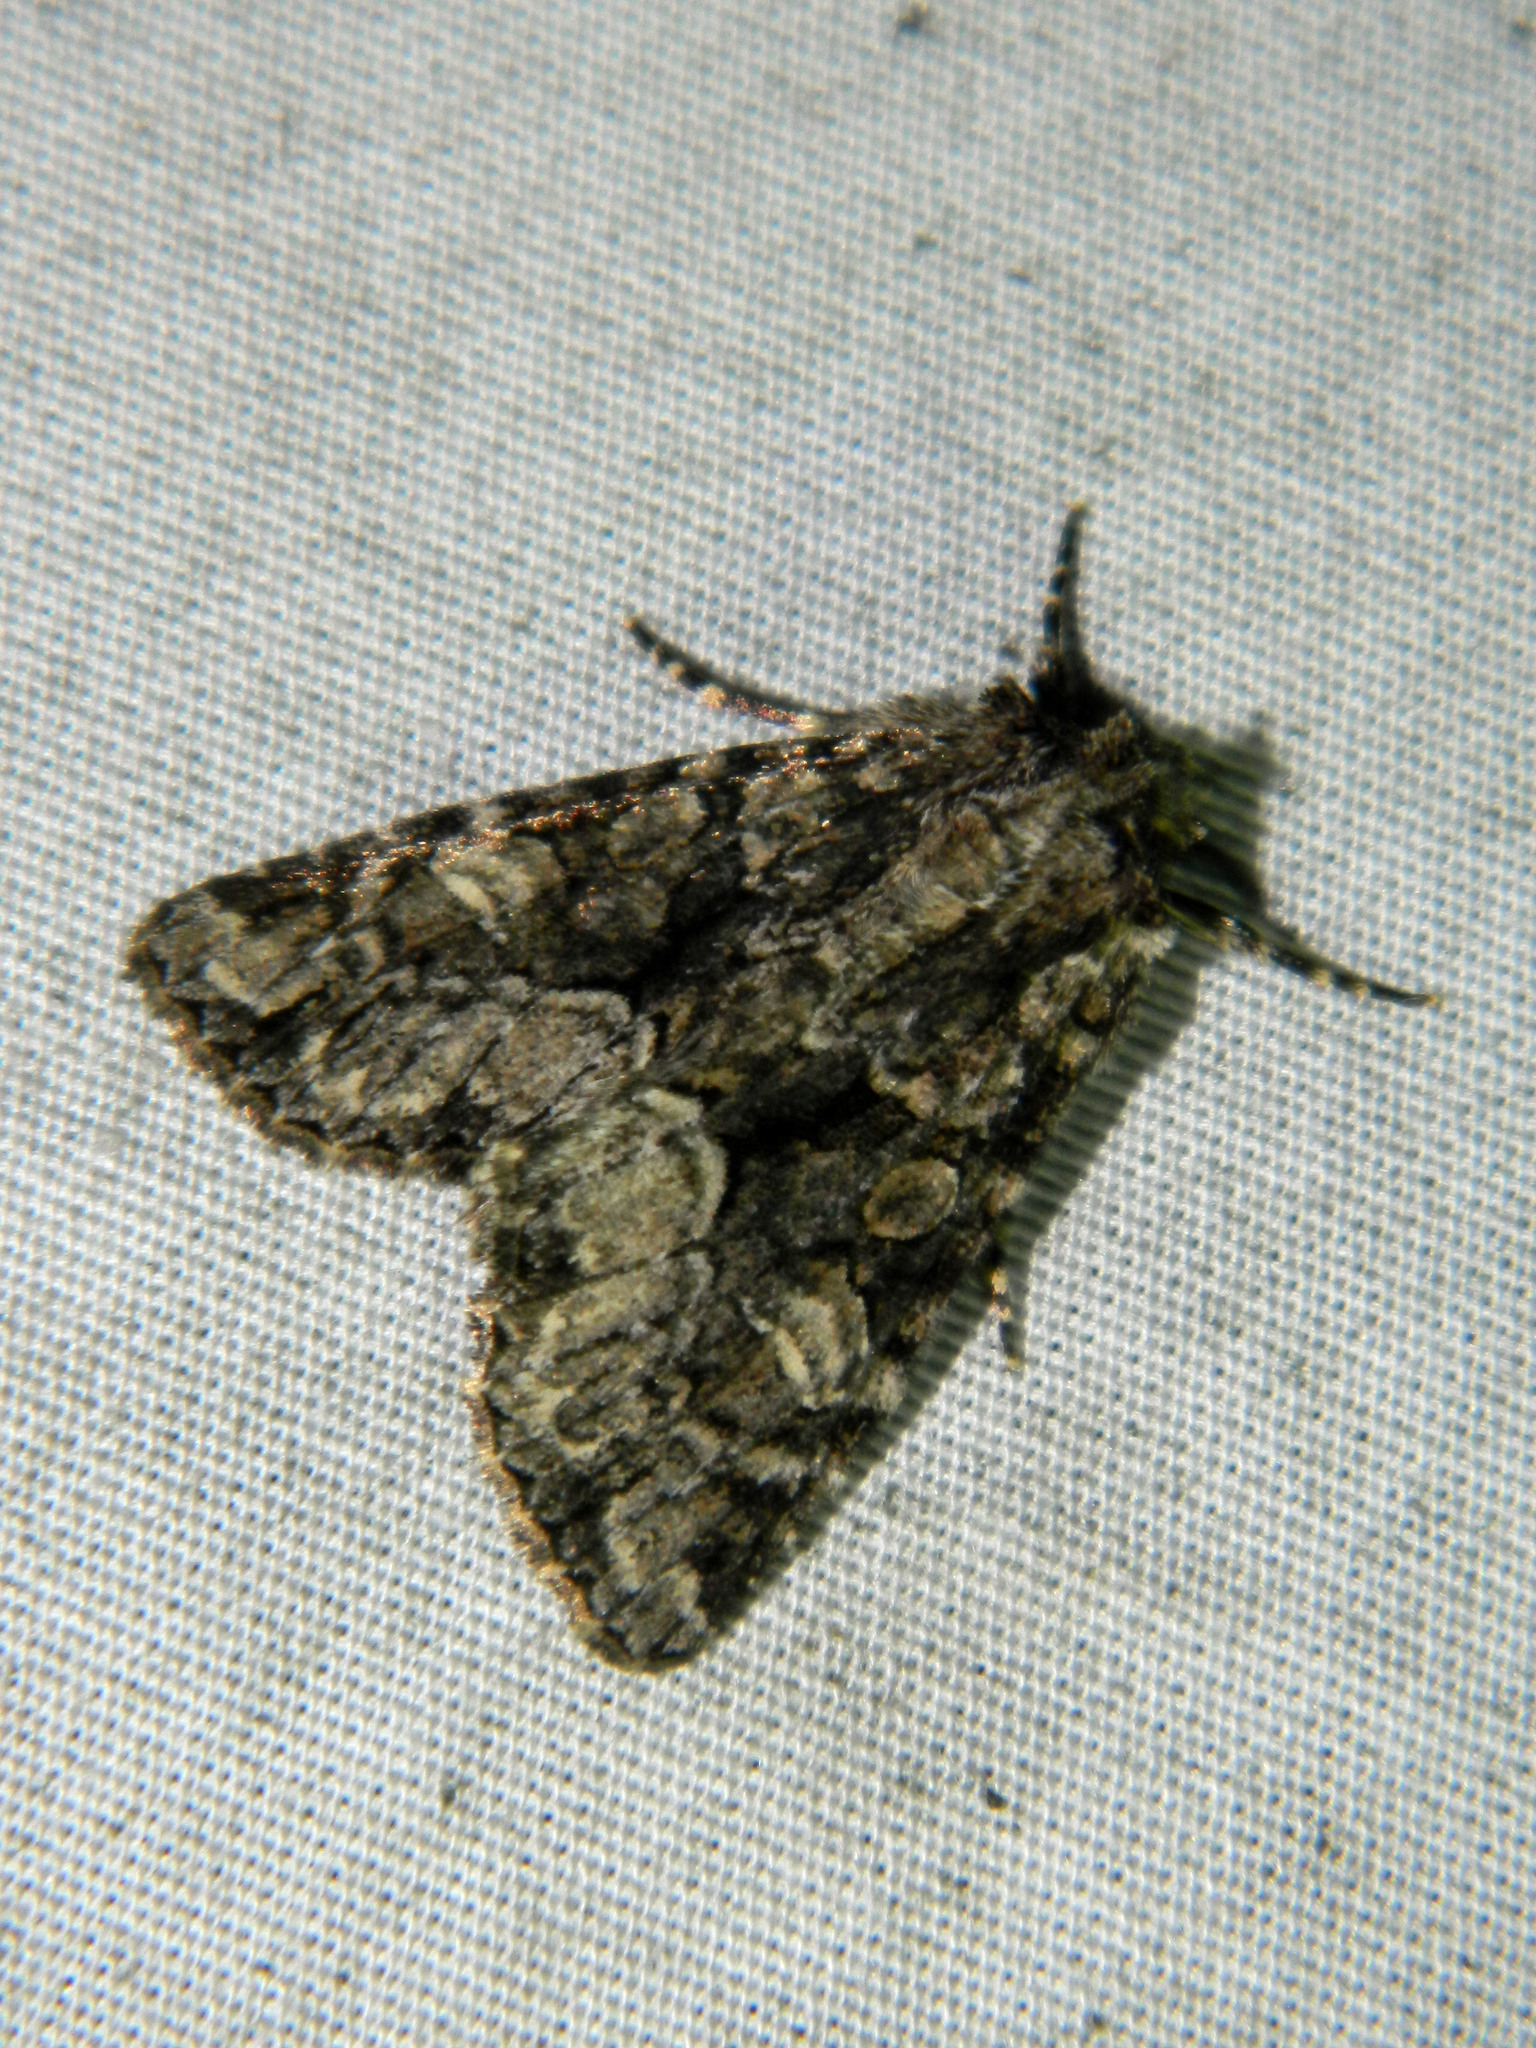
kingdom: Animalia
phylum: Arthropoda
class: Insecta
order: Lepidoptera
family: Noctuidae
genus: Platypolia
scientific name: Platypolia mactata
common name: Adorable brocade moth
